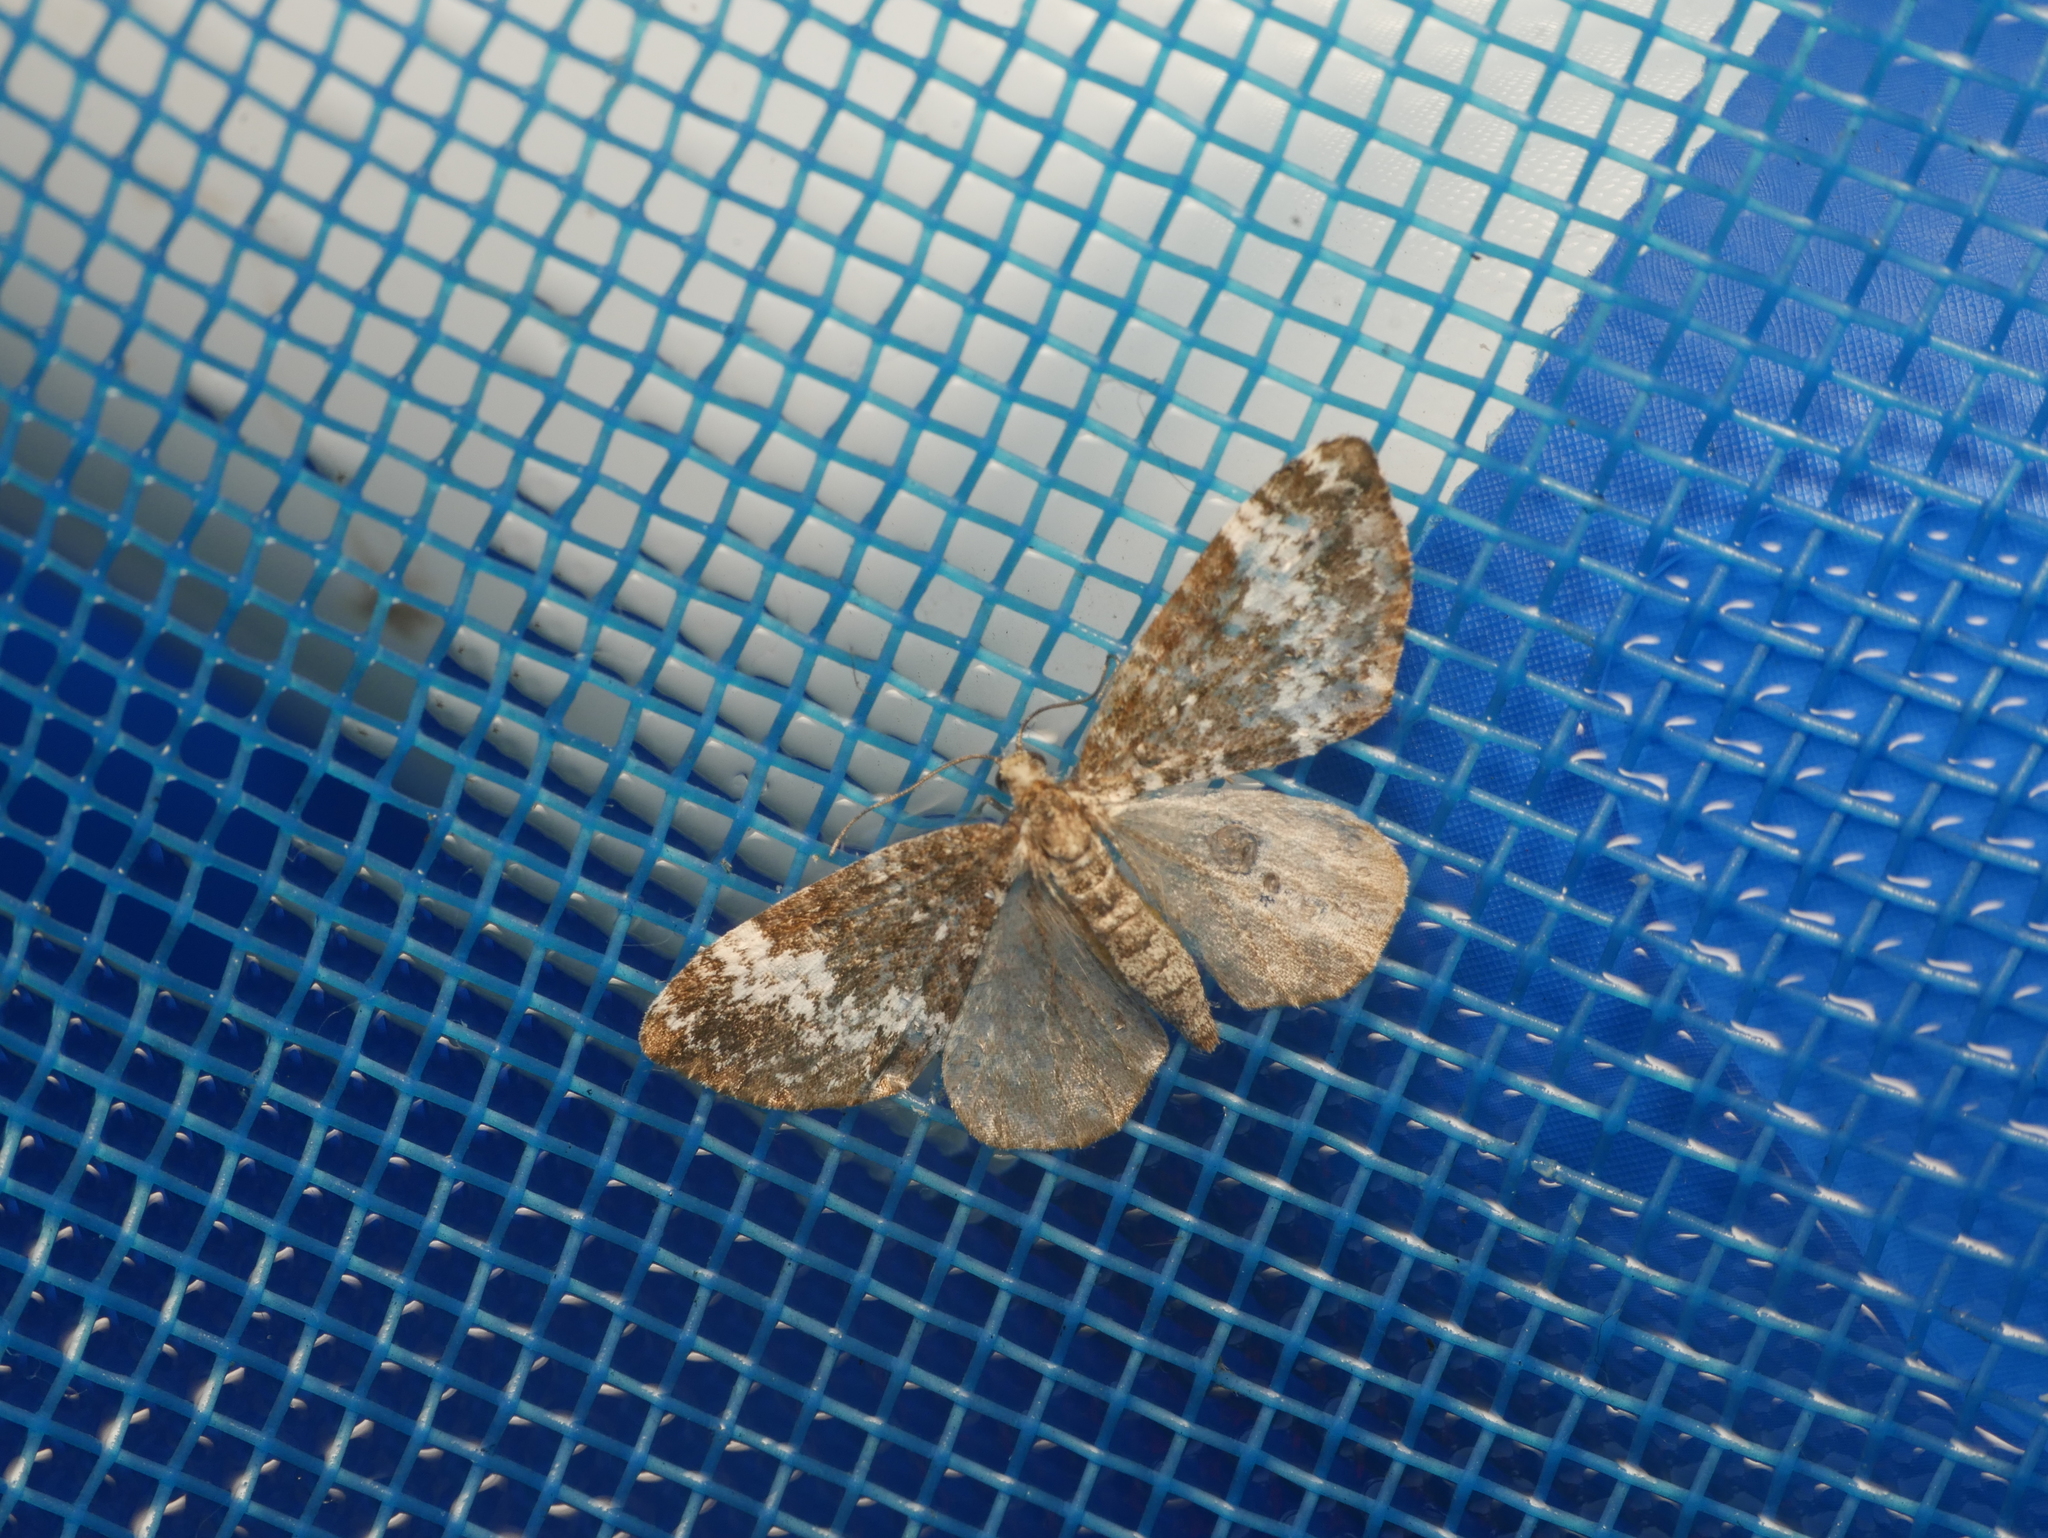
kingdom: Animalia
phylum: Arthropoda
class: Insecta
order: Lepidoptera
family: Geometridae
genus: Perizoma
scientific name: Perizoma alchemillata
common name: Small rivulet
